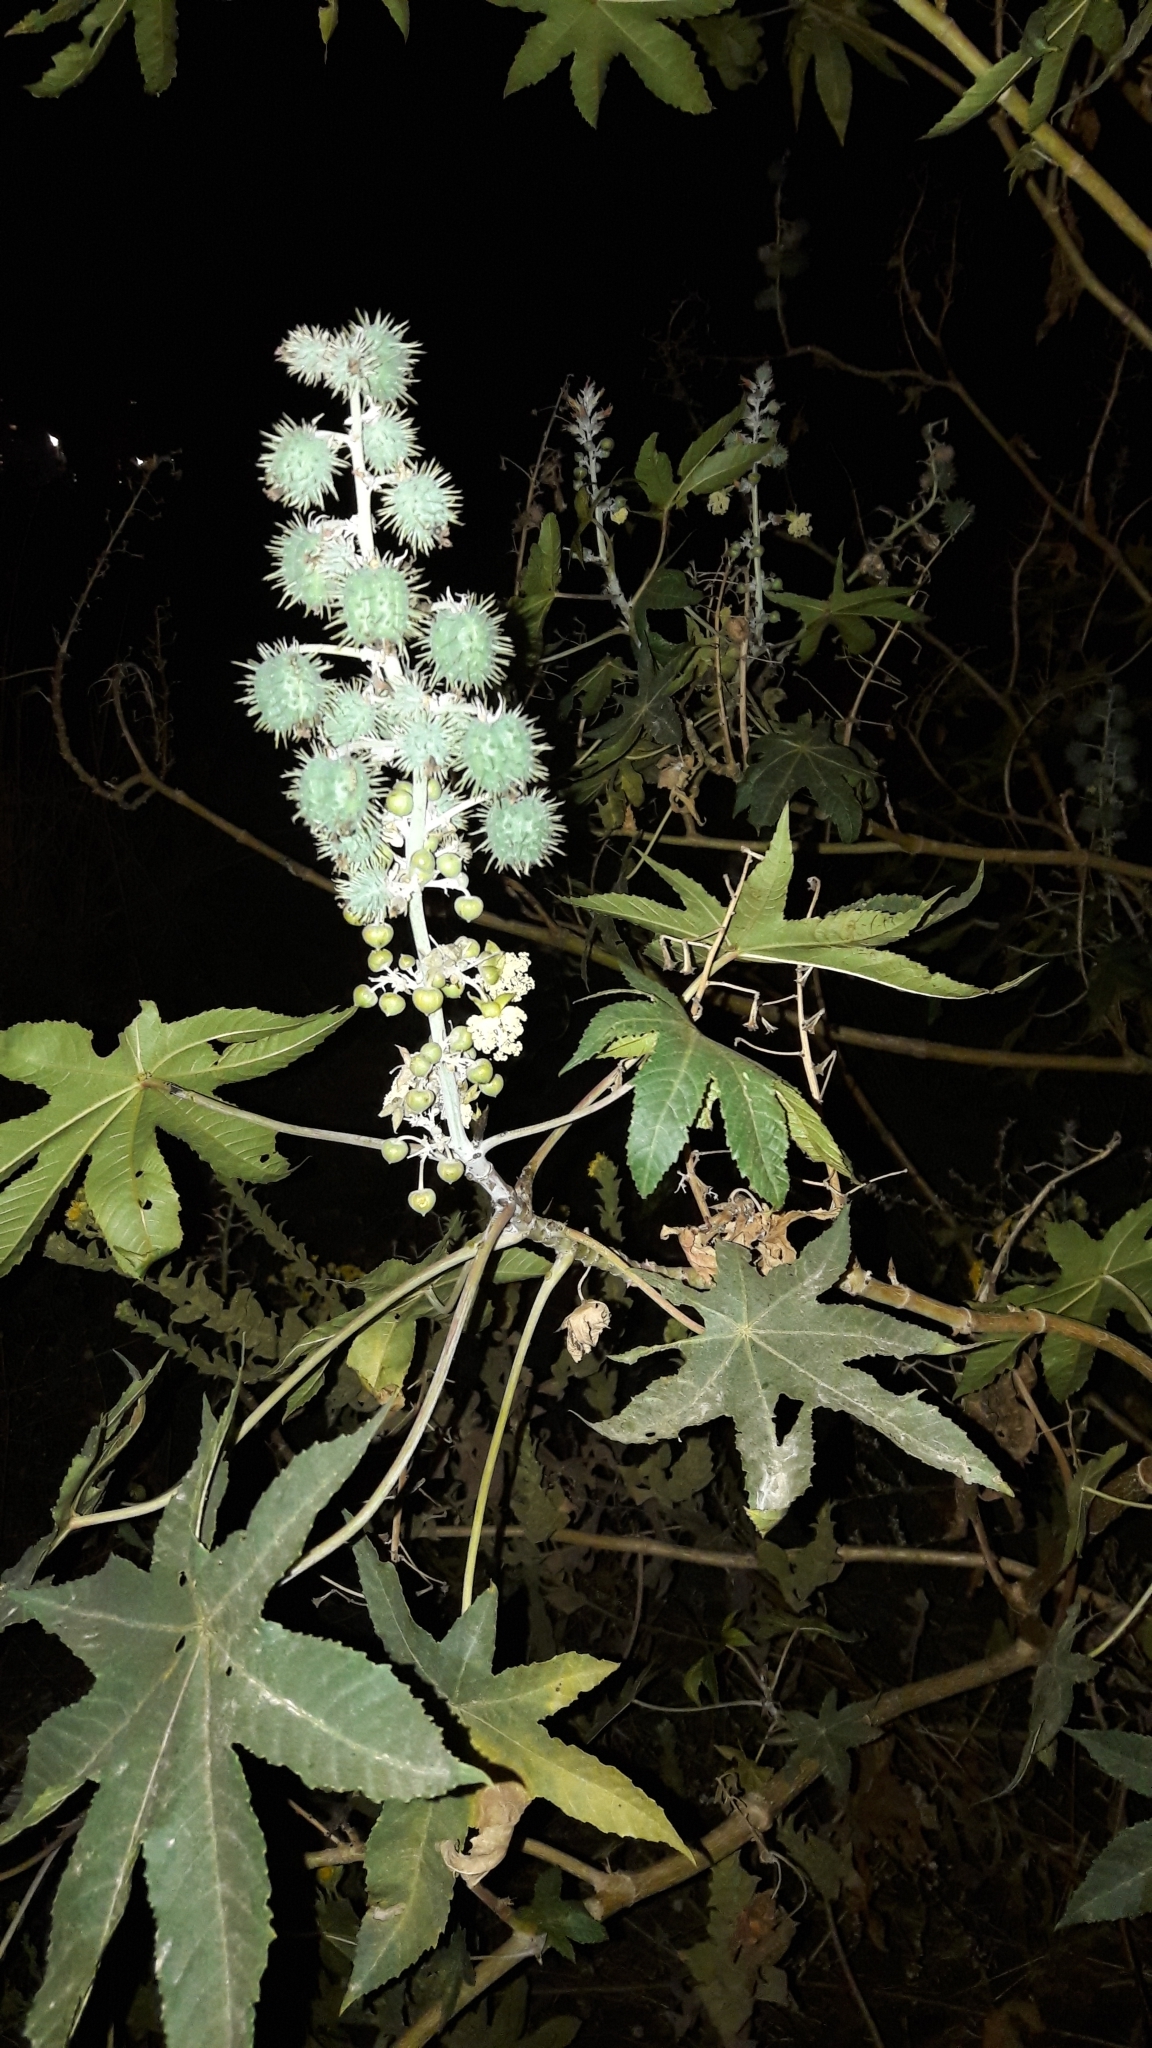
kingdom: Plantae
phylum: Tracheophyta
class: Magnoliopsida
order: Malpighiales
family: Euphorbiaceae
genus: Ricinus
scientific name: Ricinus communis
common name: Castor-oil-plant
